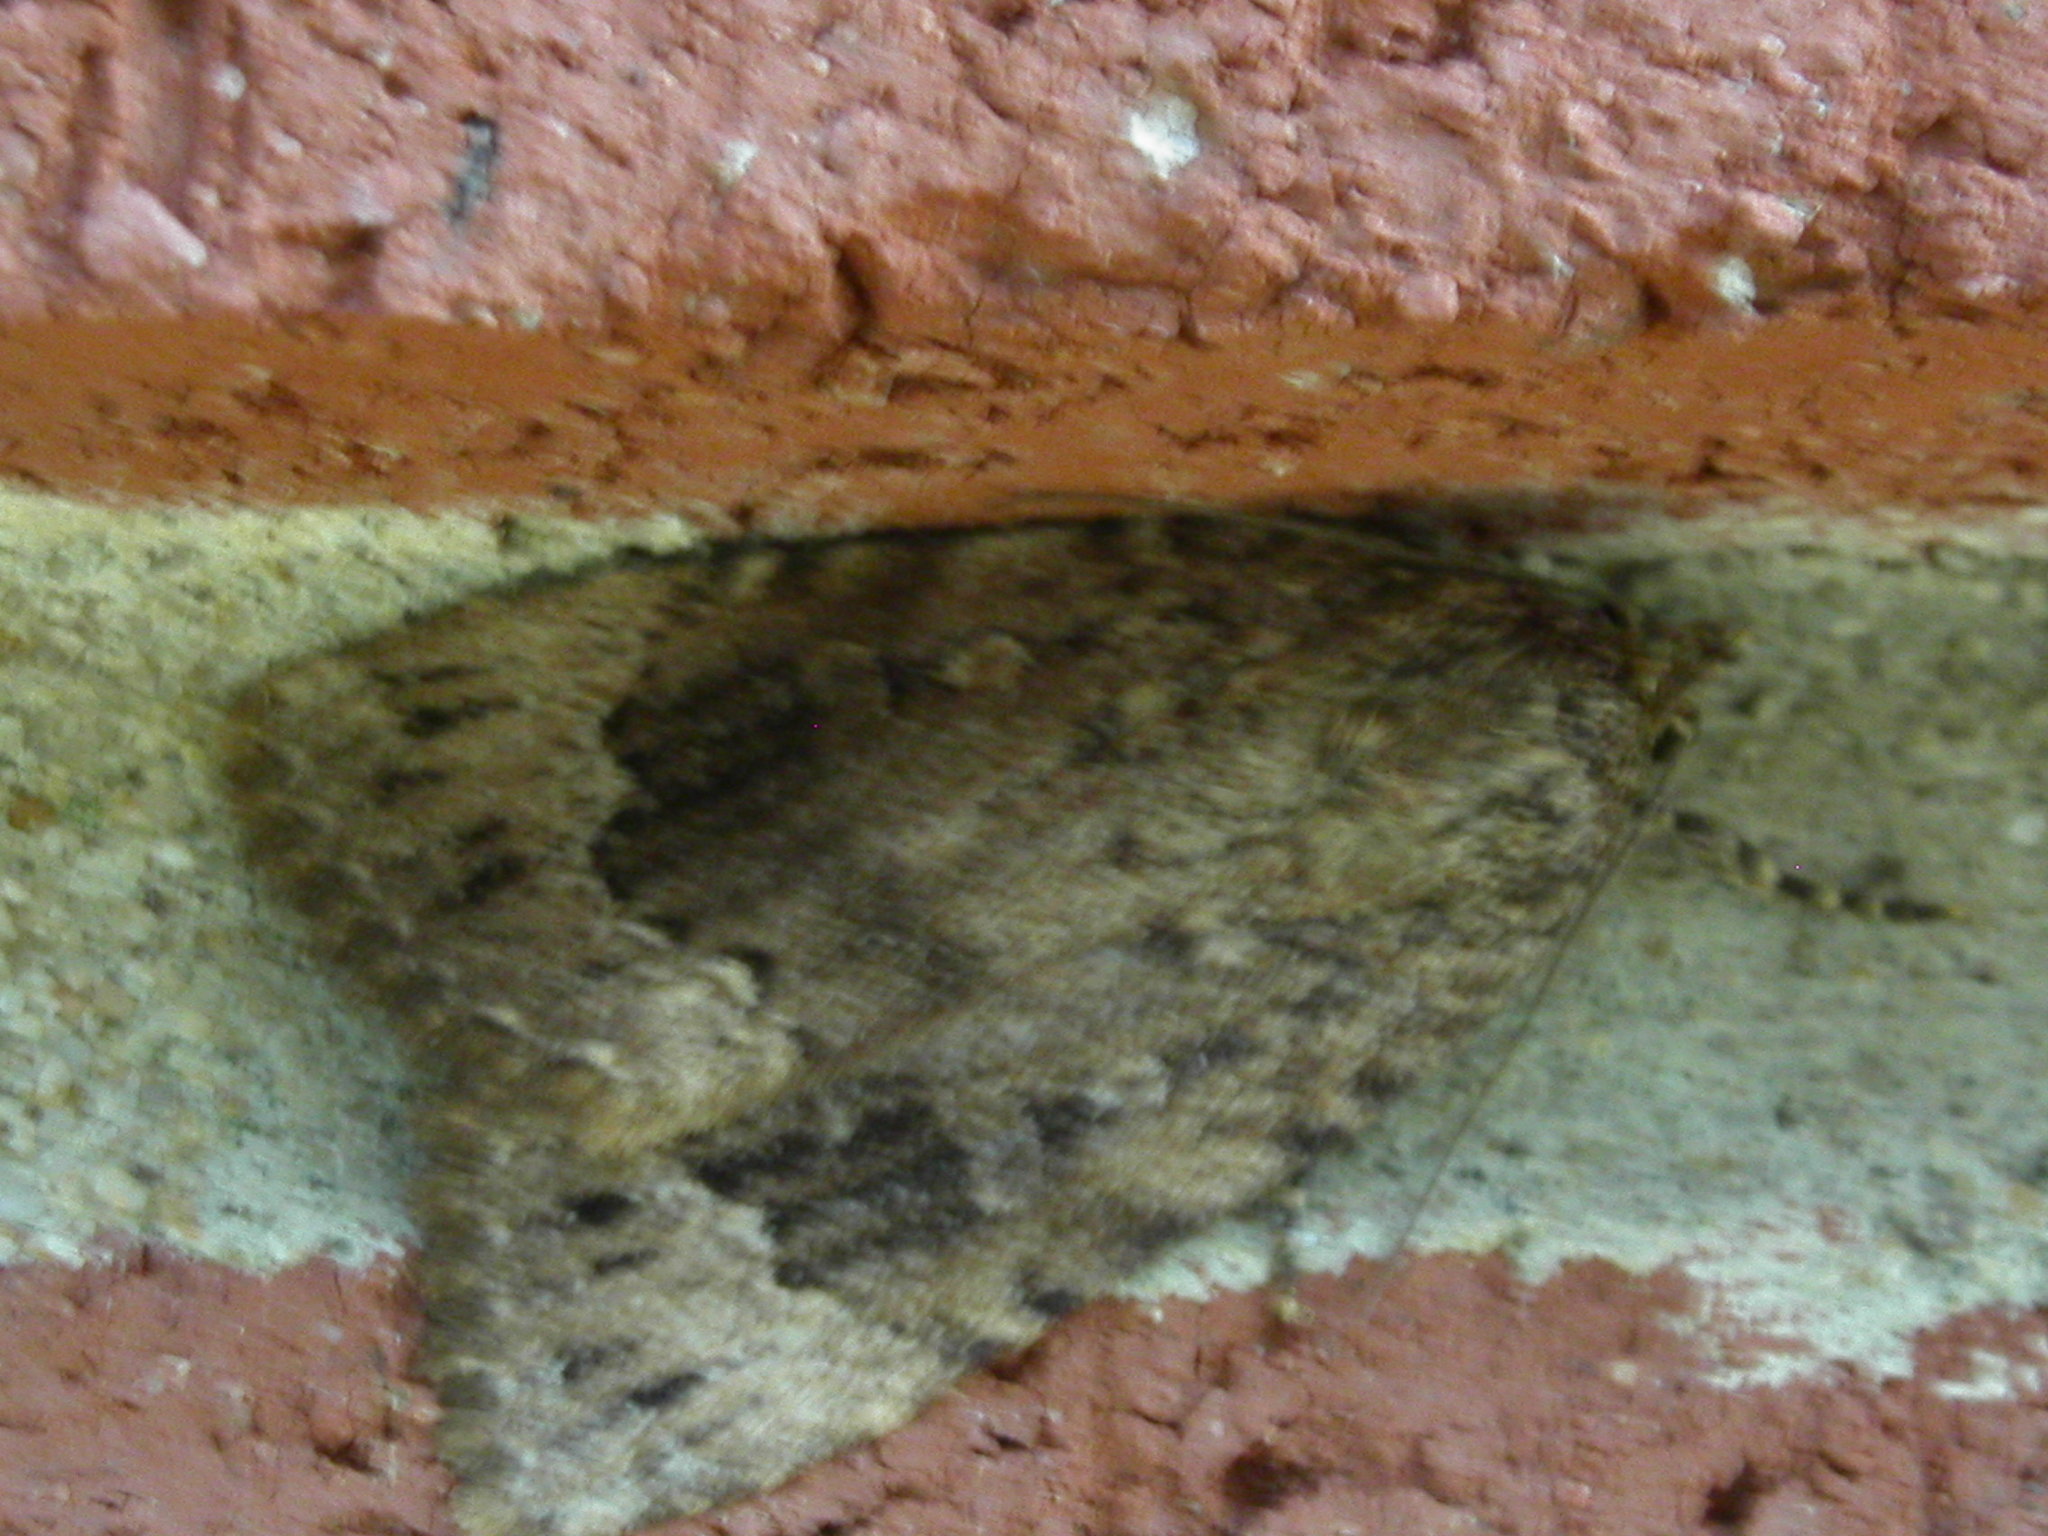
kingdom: Animalia
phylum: Arthropoda
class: Insecta
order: Lepidoptera
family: Noctuidae
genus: Amphipyra
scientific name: Amphipyra pyramidoides
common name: American copper underwing
